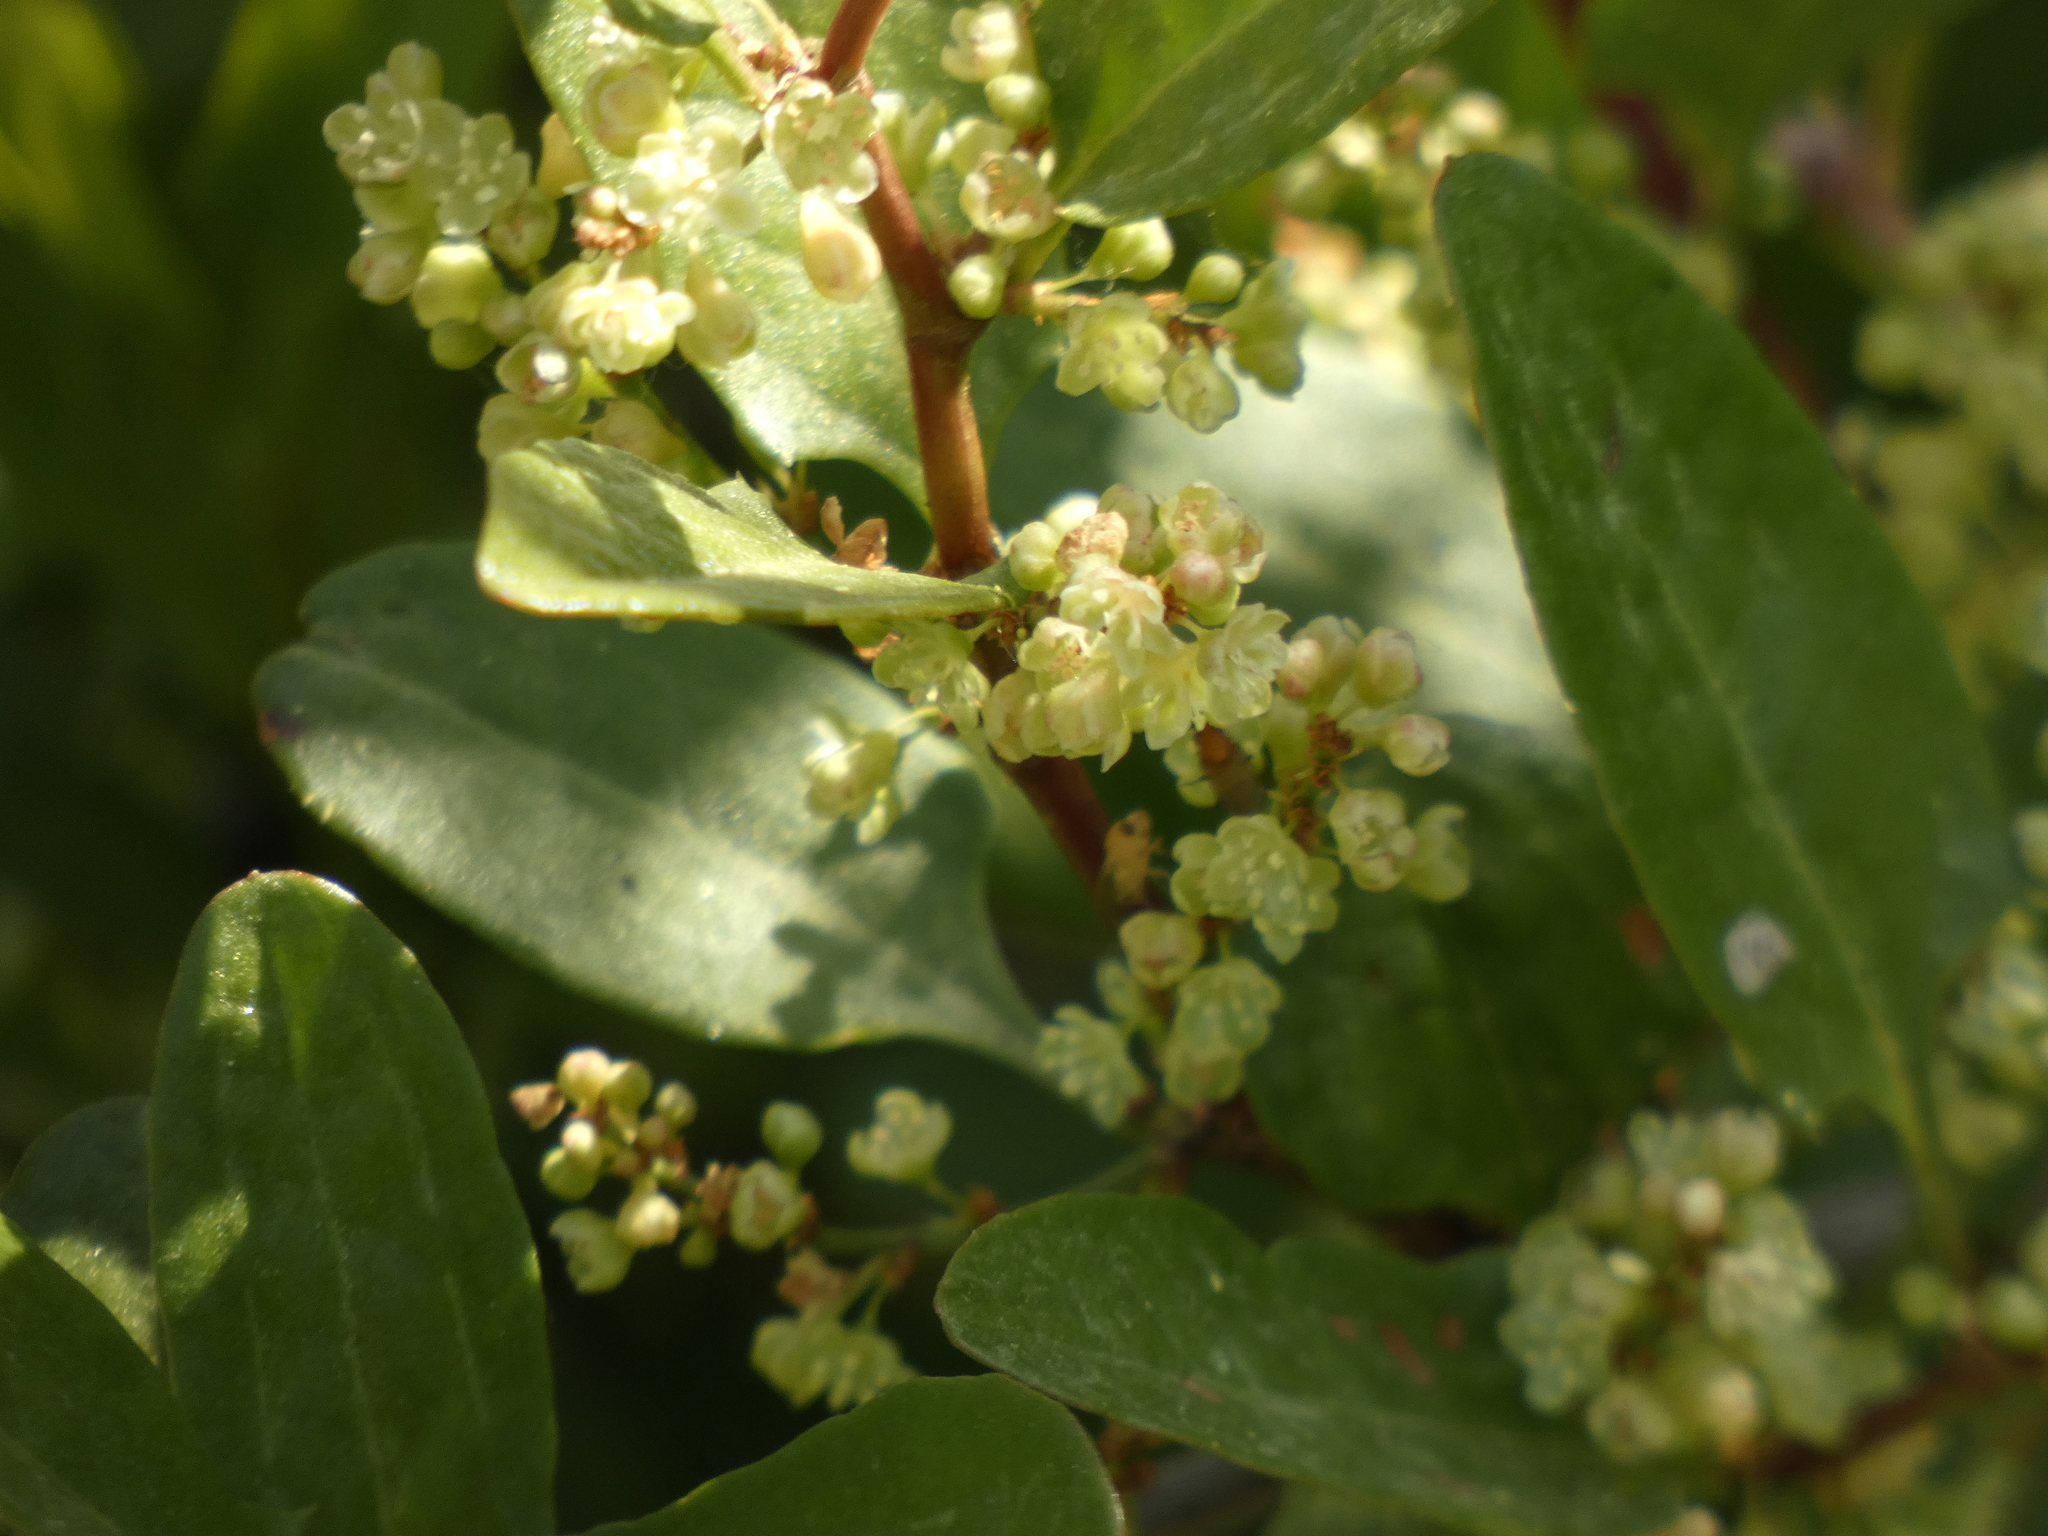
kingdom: Plantae
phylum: Tracheophyta
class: Magnoliopsida
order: Caryophyllales
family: Polygonaceae
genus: Muehlenbeckia
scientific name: Muehlenbeckia hastulata
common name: Wirevine
